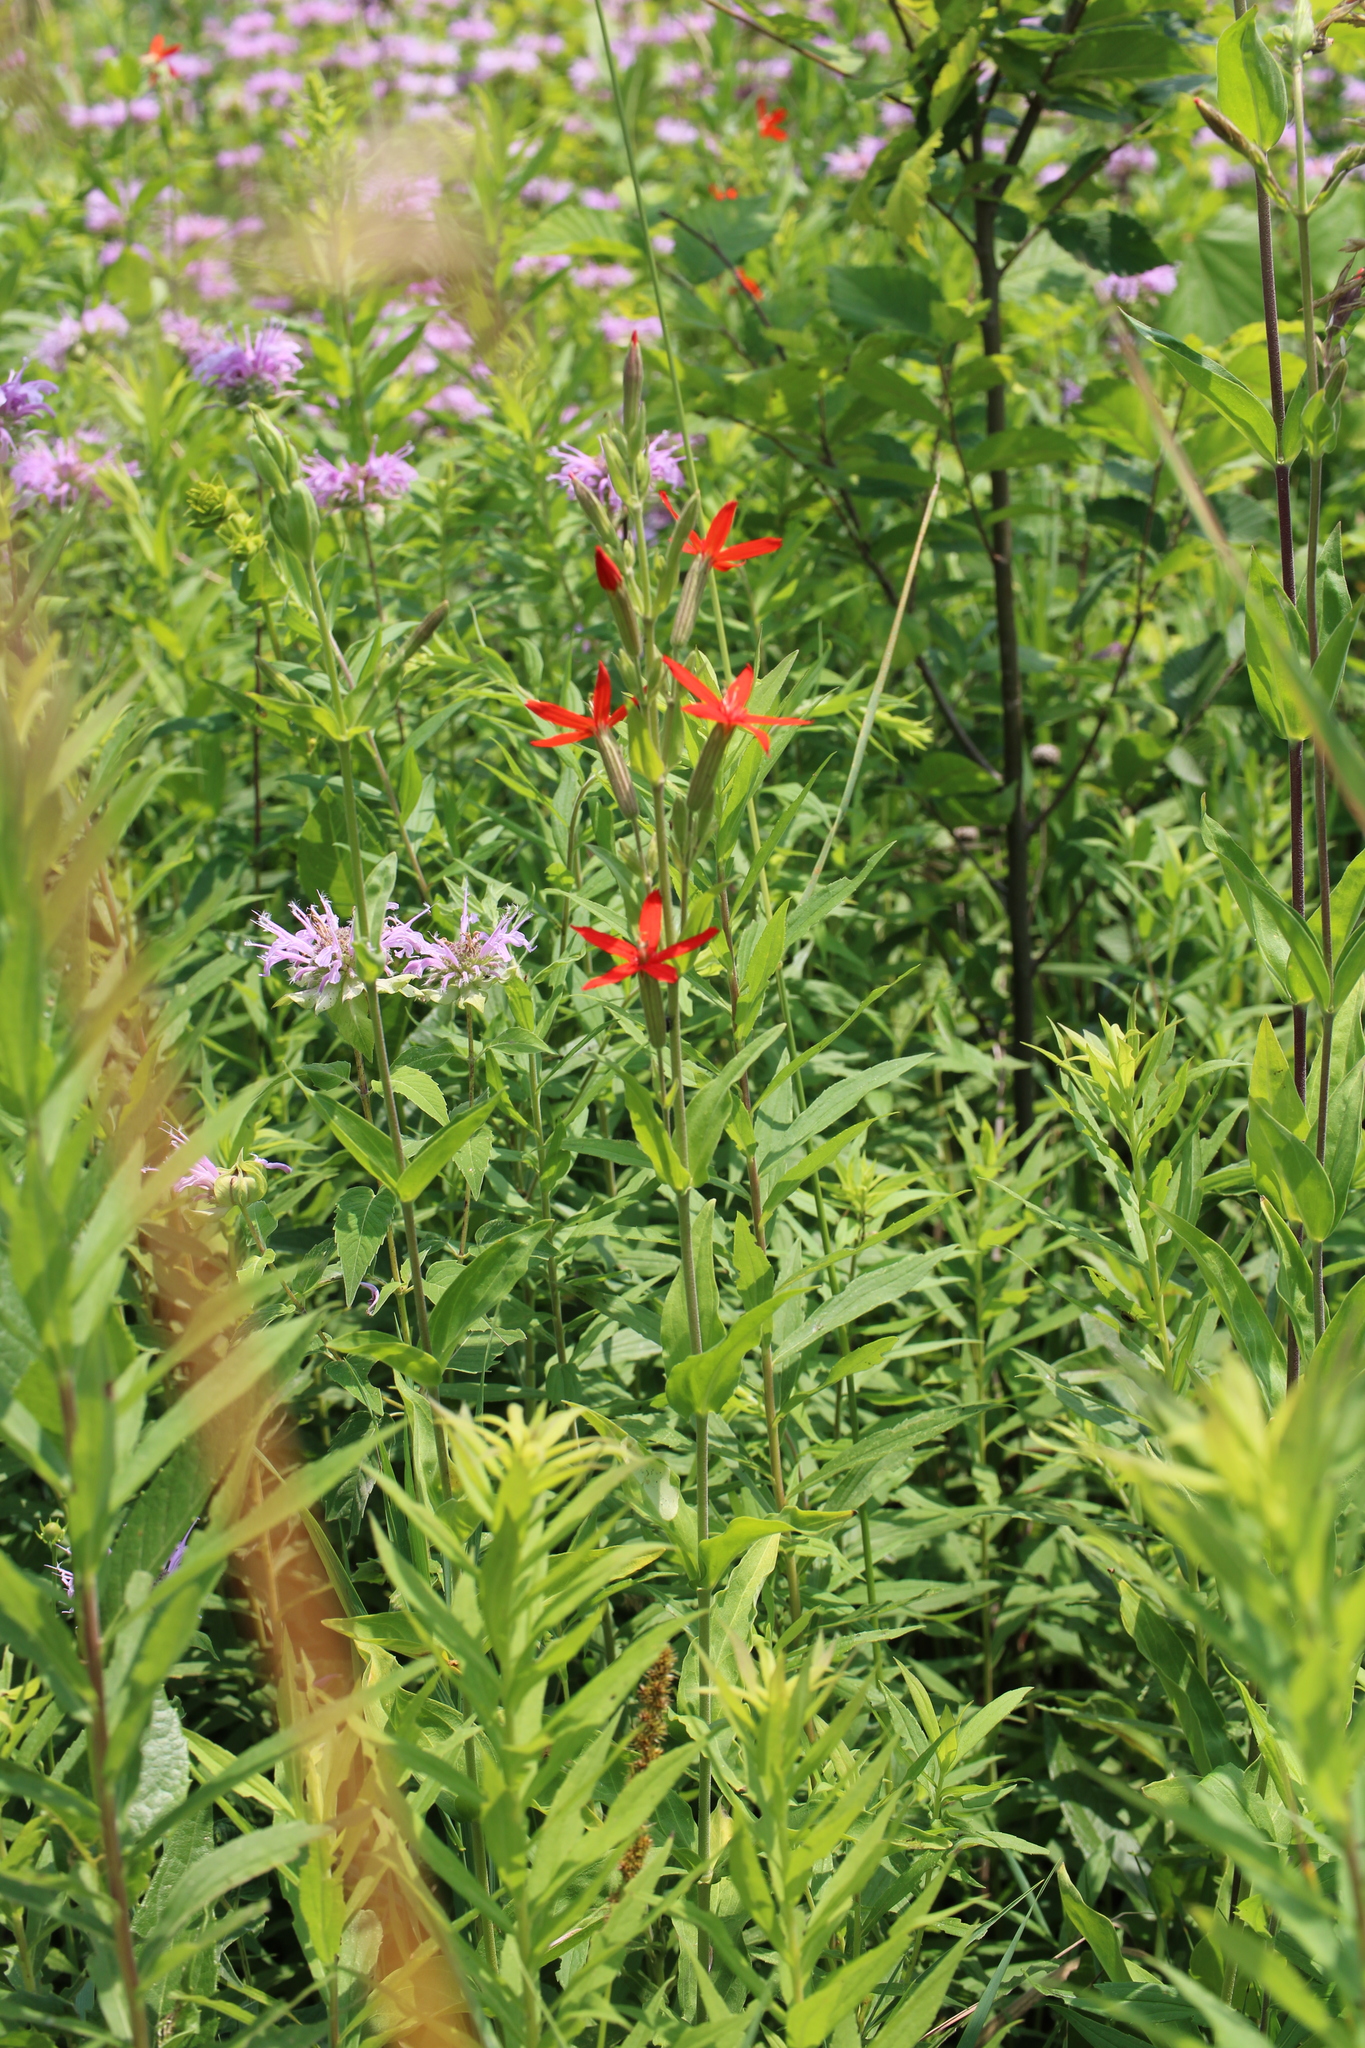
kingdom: Plantae
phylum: Tracheophyta
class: Magnoliopsida
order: Caryophyllales
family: Caryophyllaceae
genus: Silene
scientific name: Silene regia
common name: Royal catchfly
